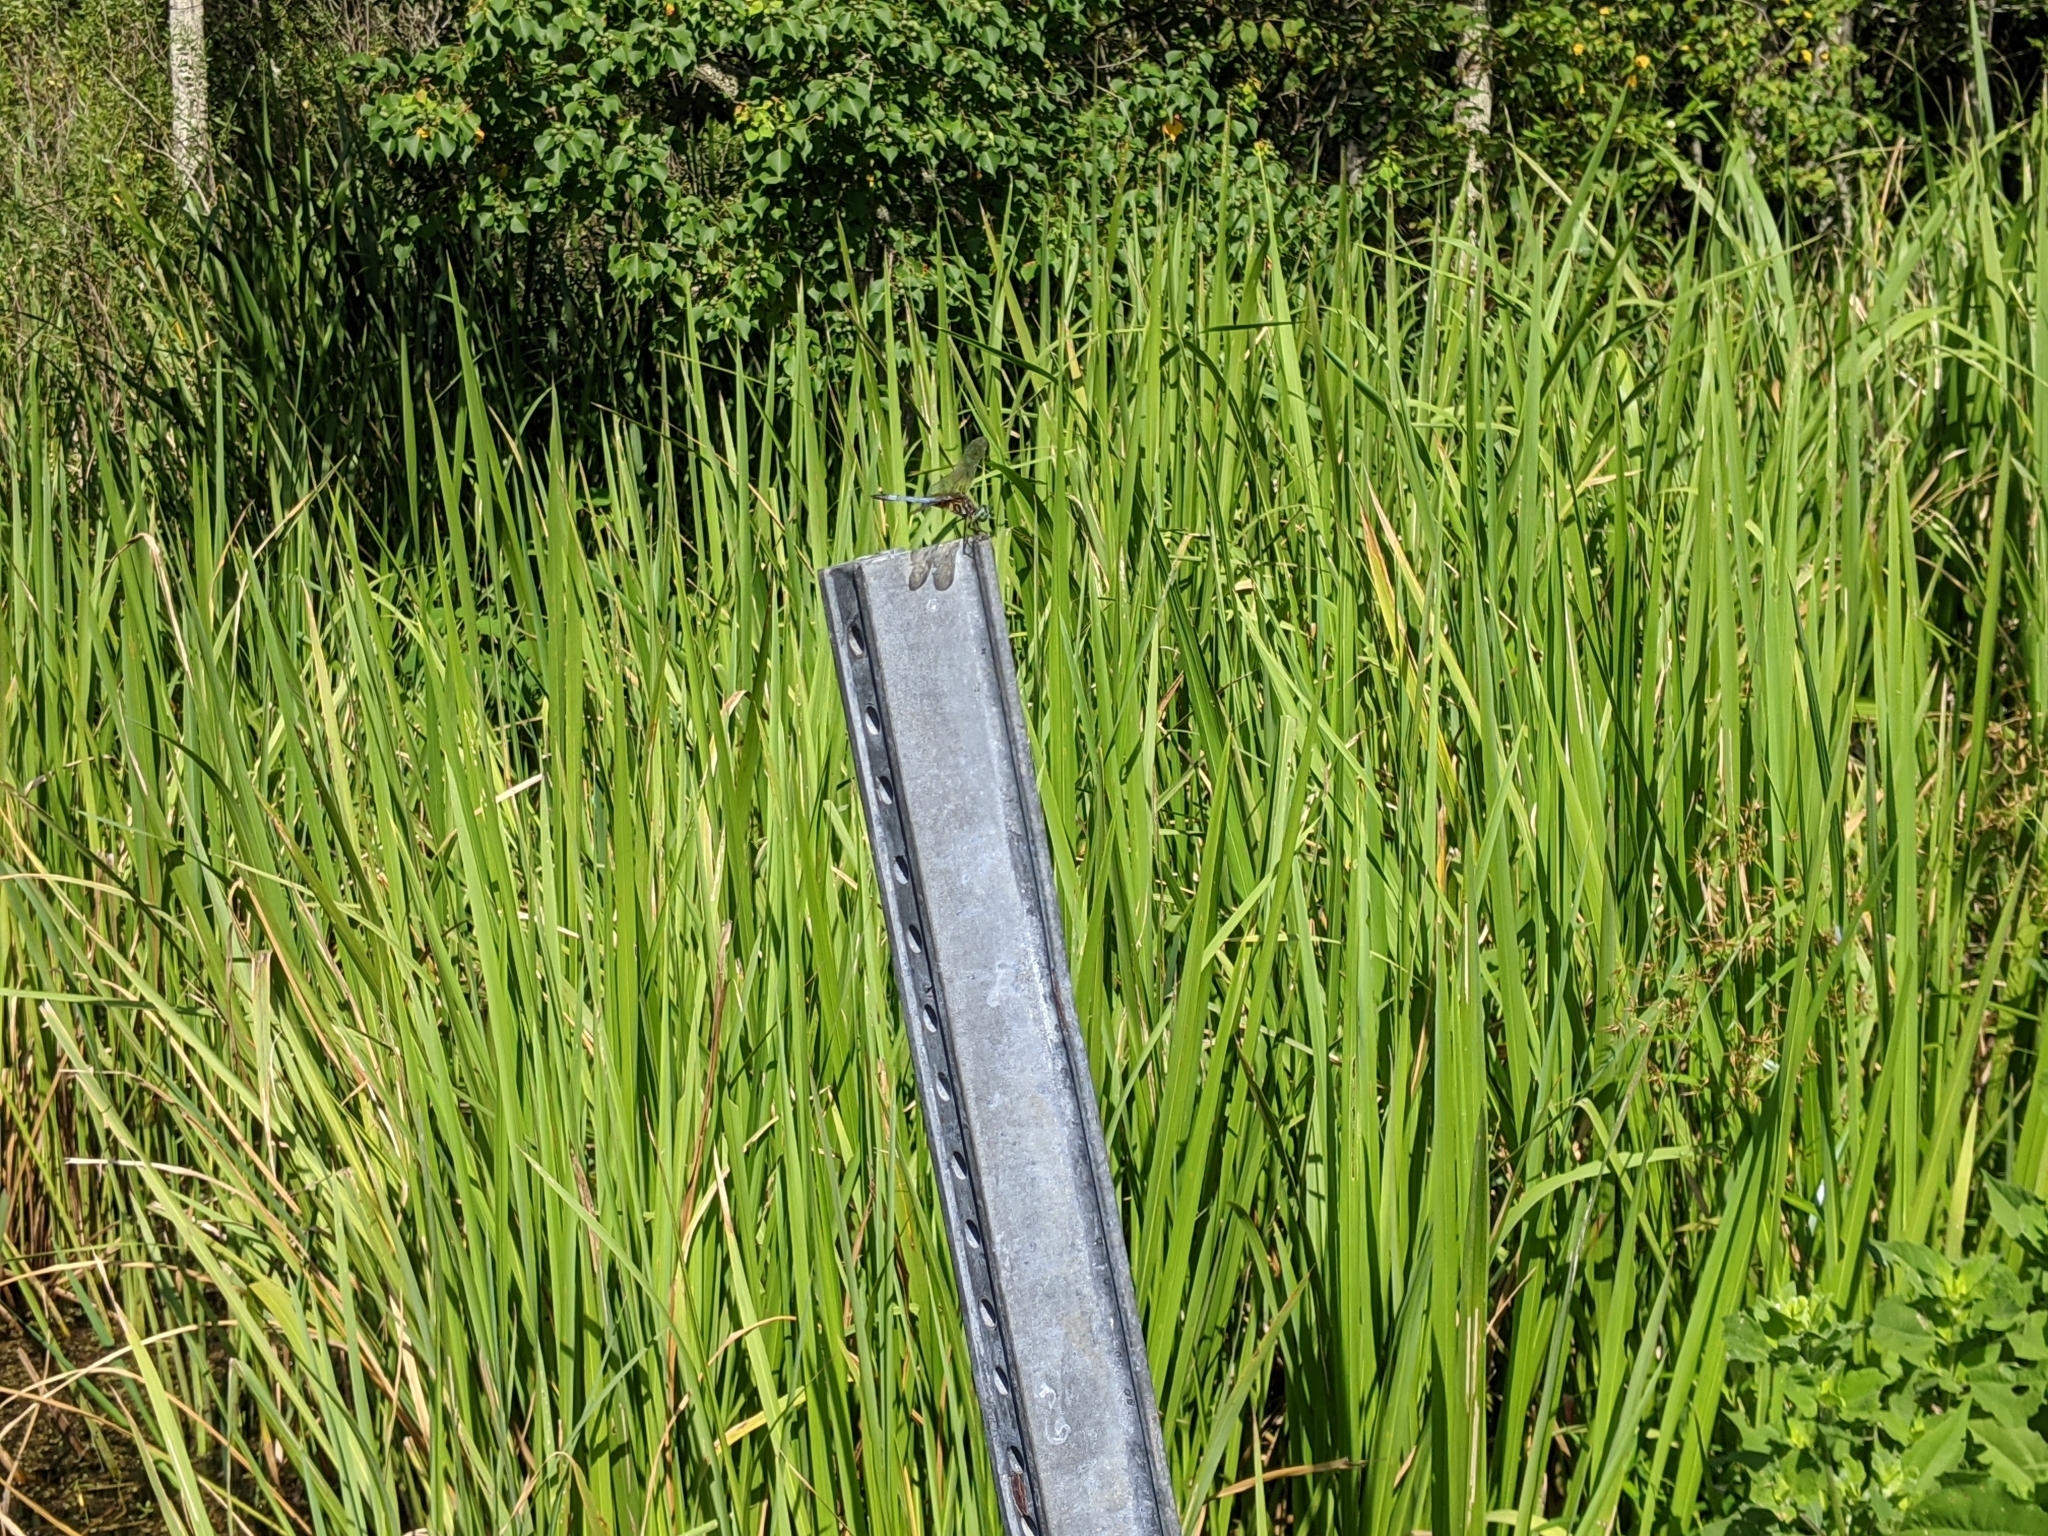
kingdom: Animalia
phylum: Arthropoda
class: Insecta
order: Odonata
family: Libellulidae
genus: Pachydiplax
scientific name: Pachydiplax longipennis
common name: Blue dasher
